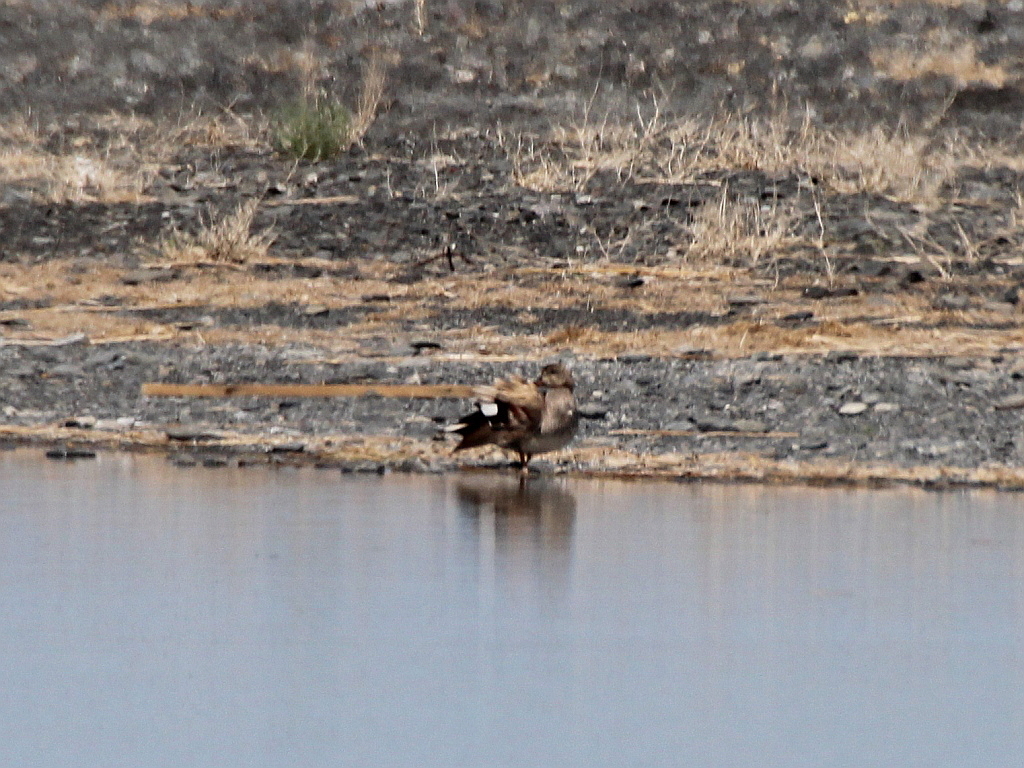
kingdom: Animalia
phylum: Chordata
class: Aves
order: Anseriformes
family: Anatidae
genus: Mareca
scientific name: Mareca strepera
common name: Gadwall
